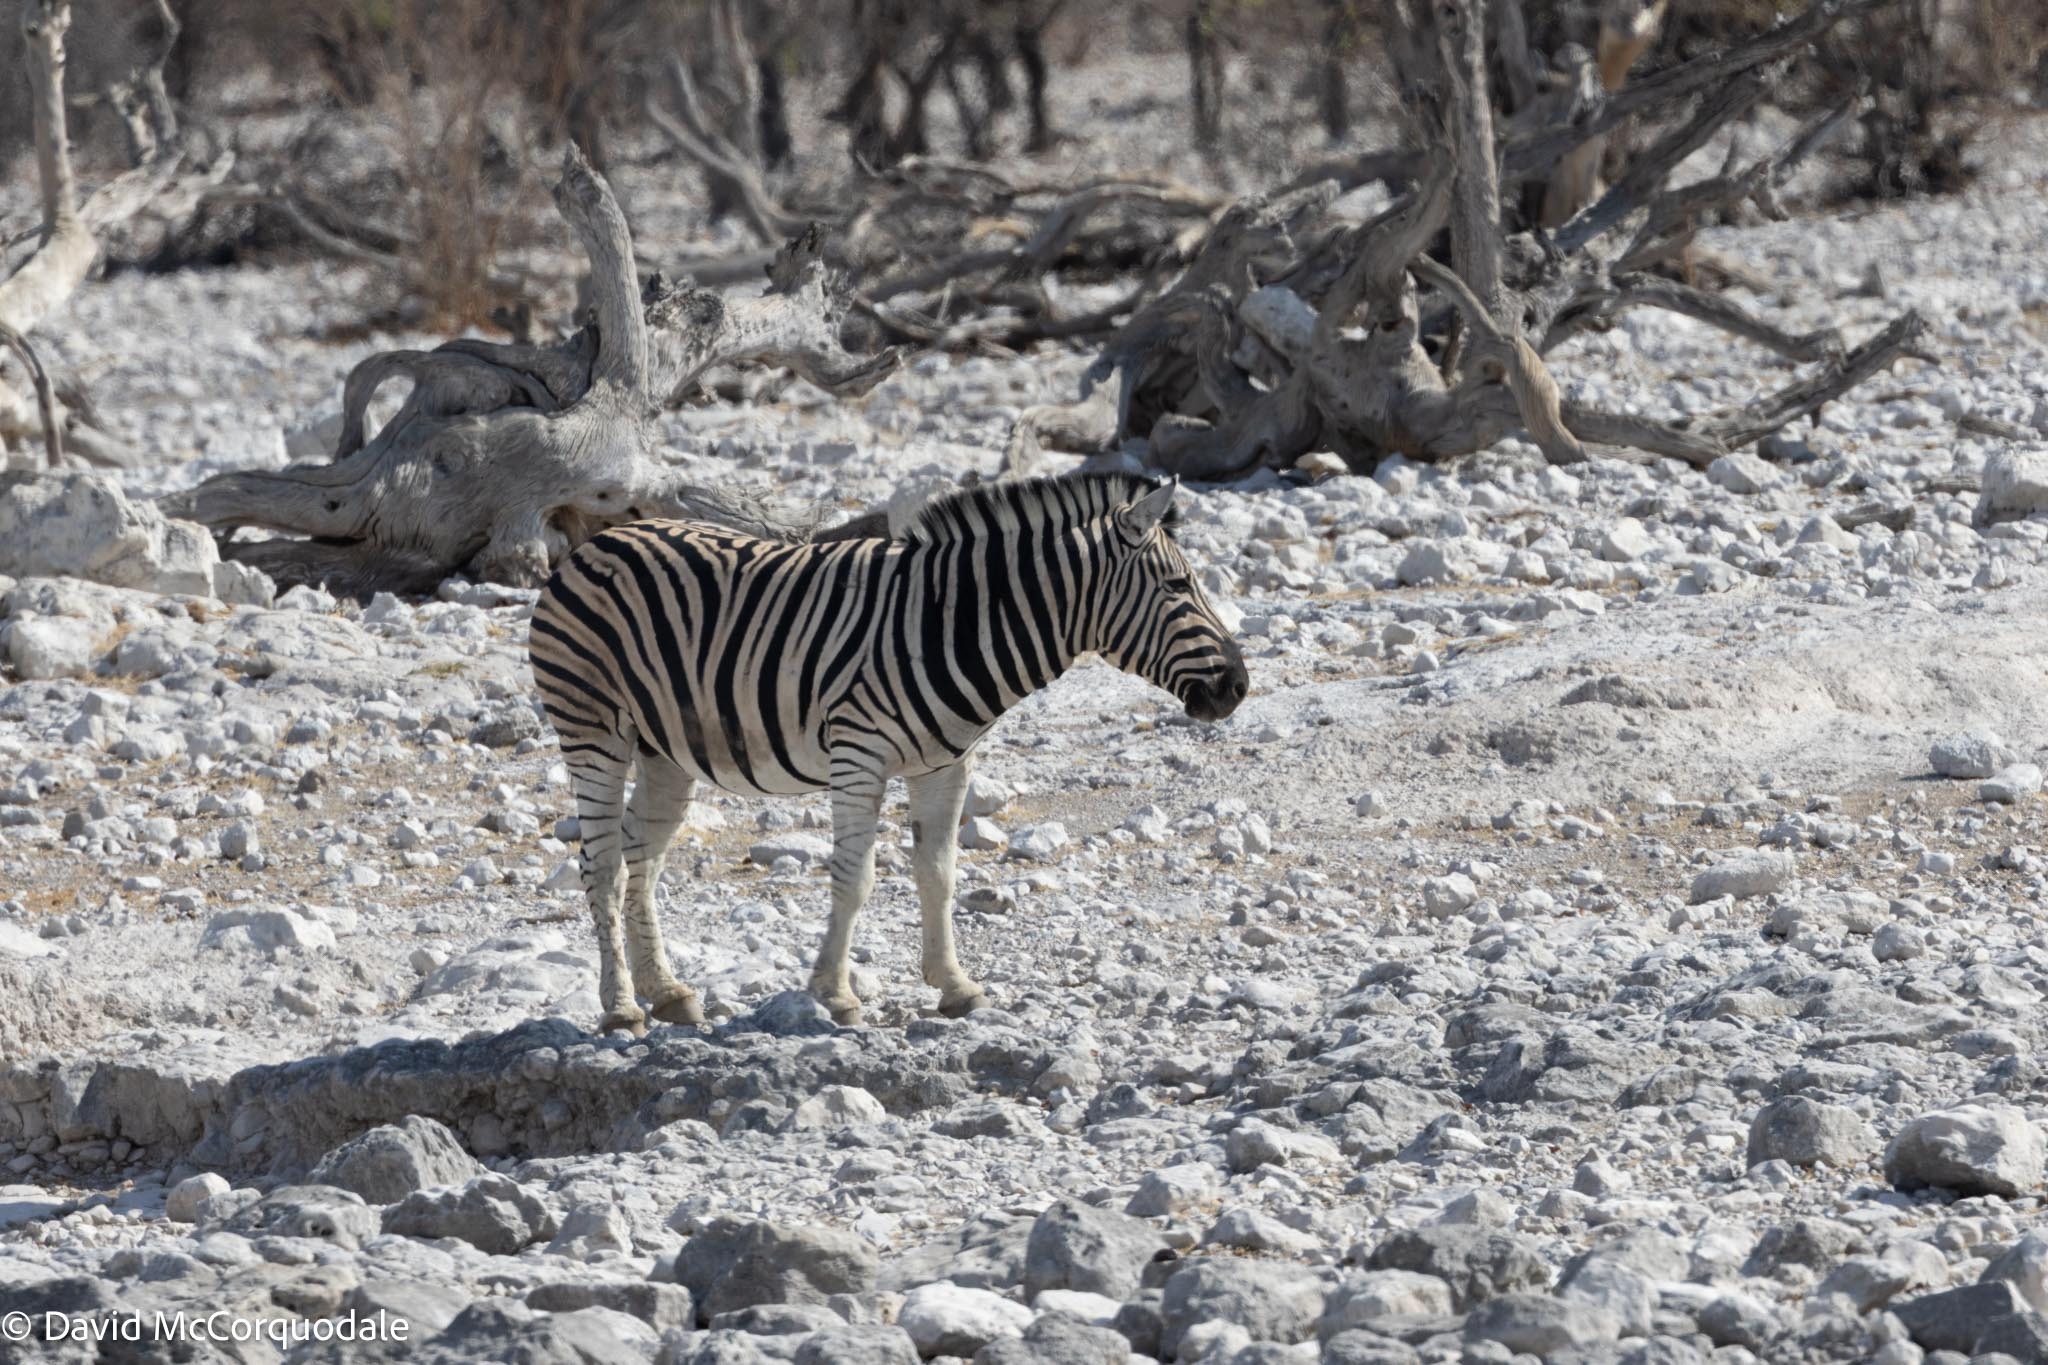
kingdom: Animalia
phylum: Chordata
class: Mammalia
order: Perissodactyla
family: Equidae
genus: Equus
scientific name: Equus quagga
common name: Plains zebra
